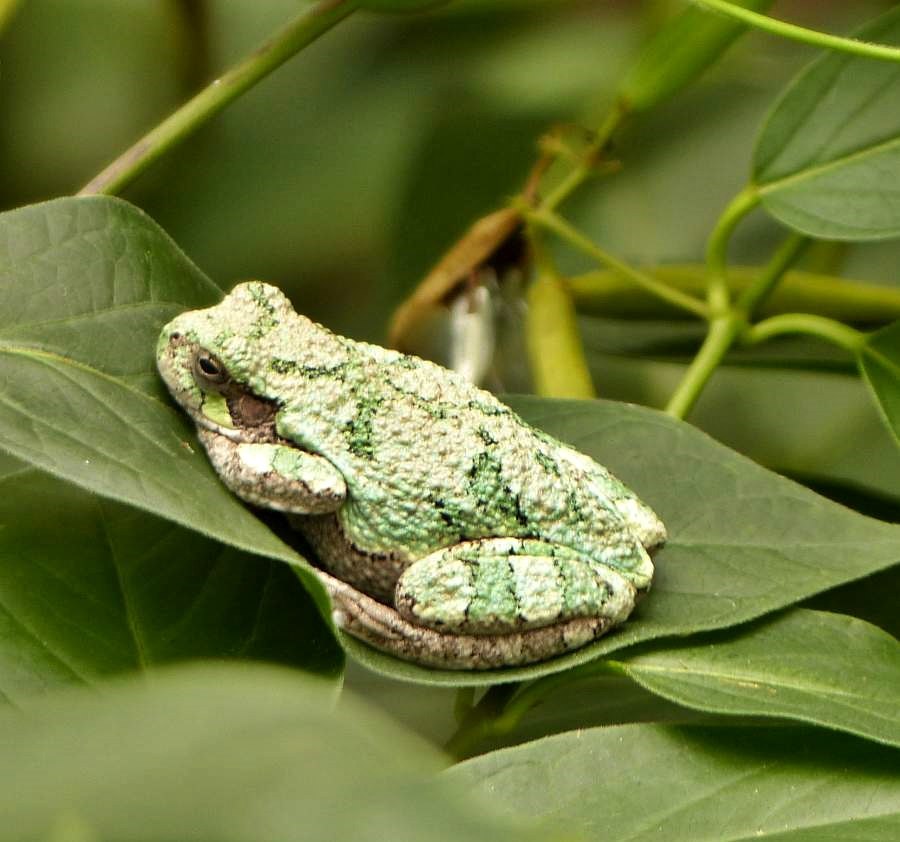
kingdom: Animalia
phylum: Chordata
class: Amphibia
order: Anura
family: Hylidae
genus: Dryophytes
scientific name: Dryophytes versicolor
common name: Gray treefrog
